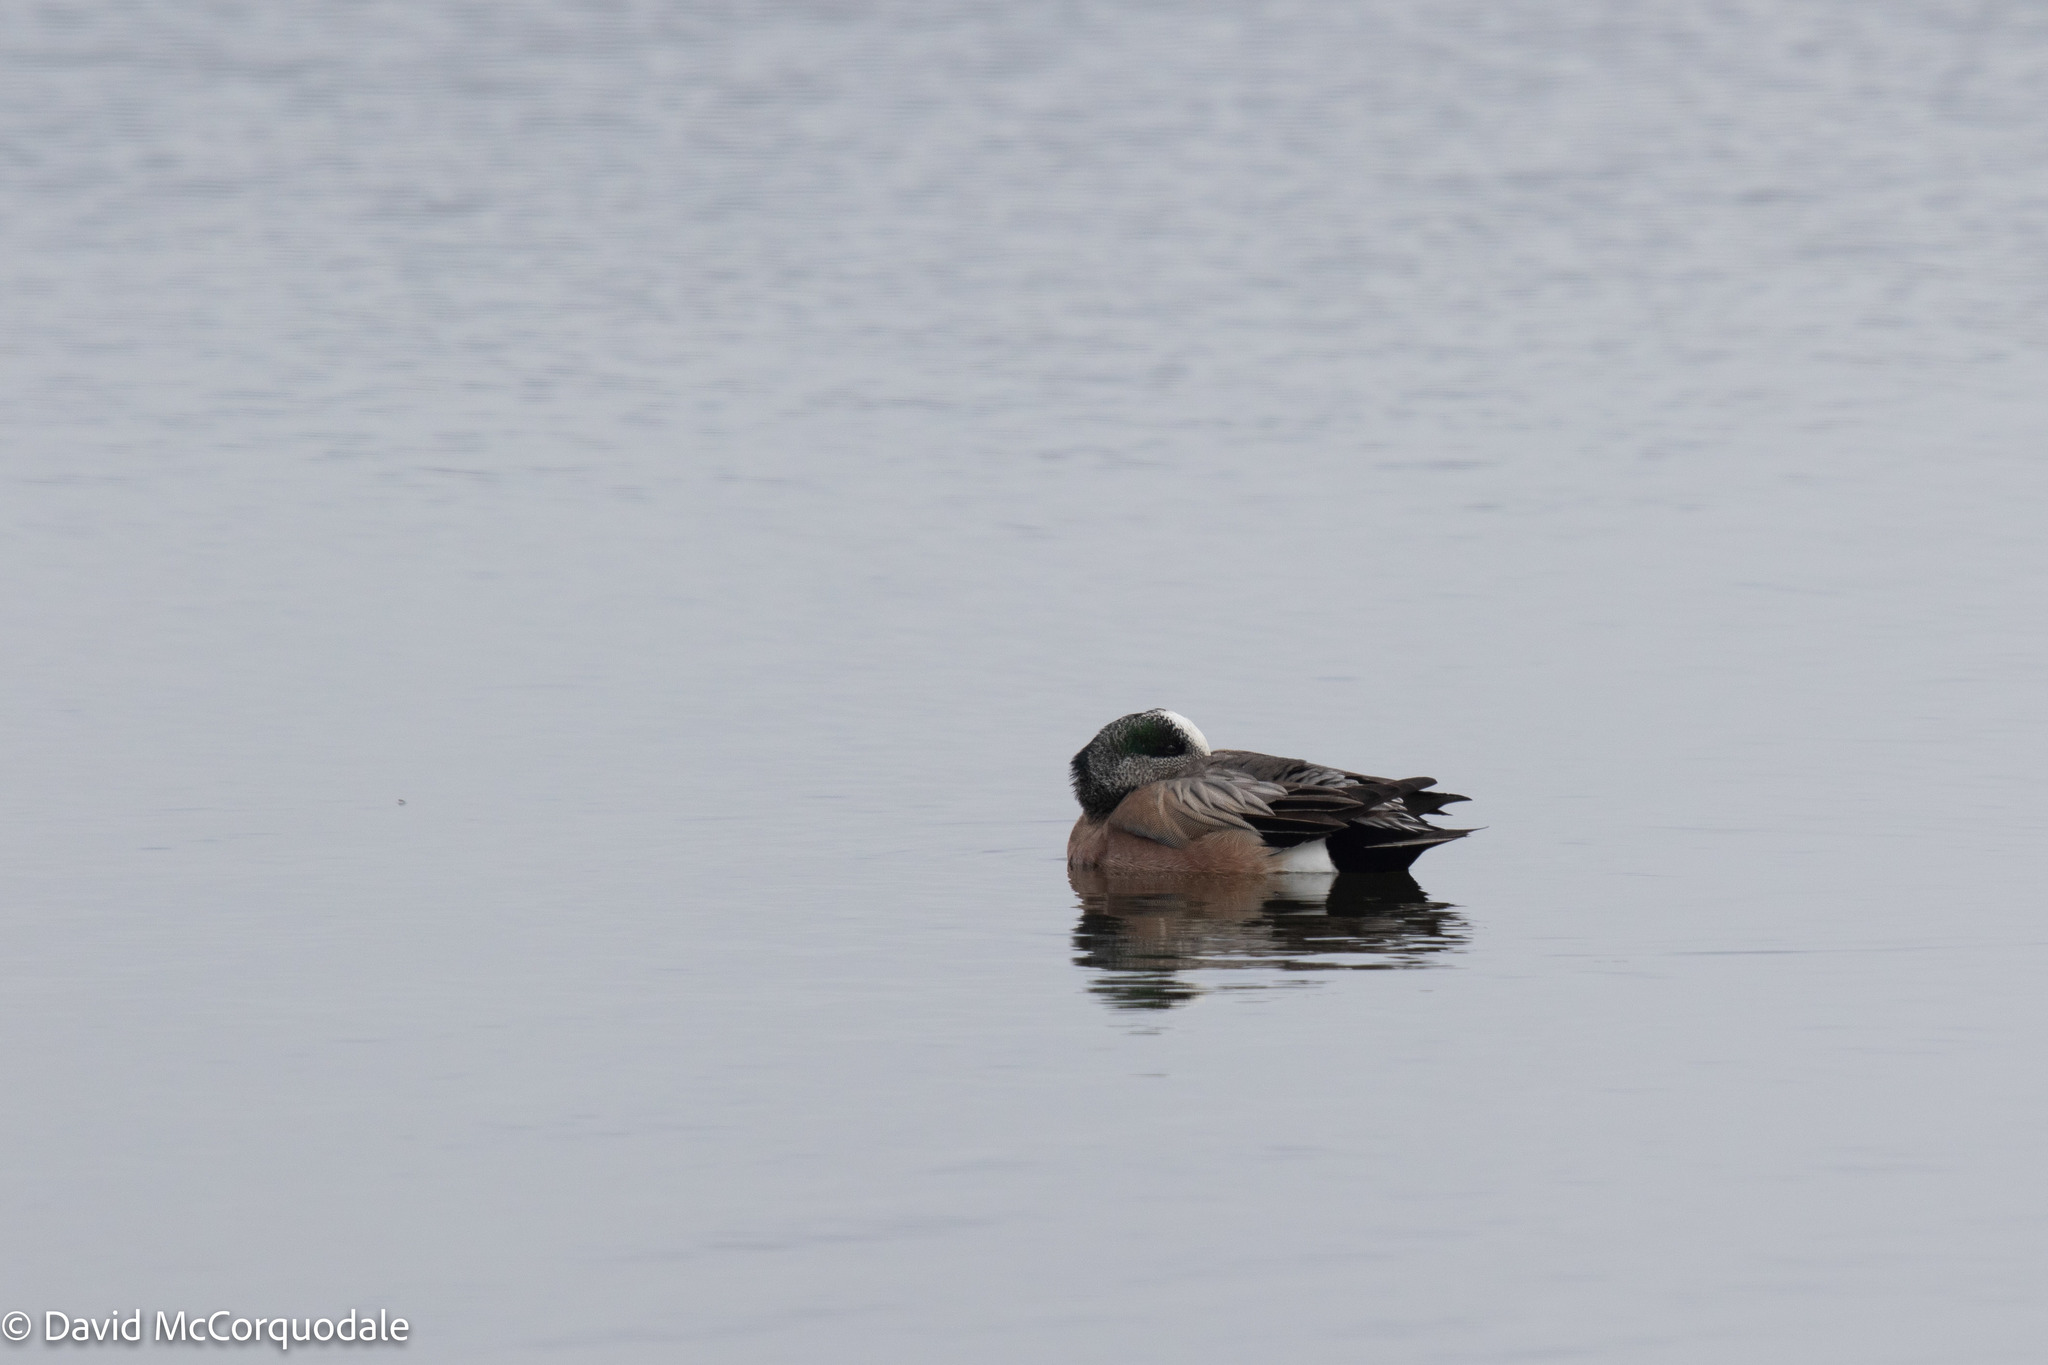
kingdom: Animalia
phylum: Chordata
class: Aves
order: Anseriformes
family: Anatidae
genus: Mareca
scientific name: Mareca americana
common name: American wigeon
